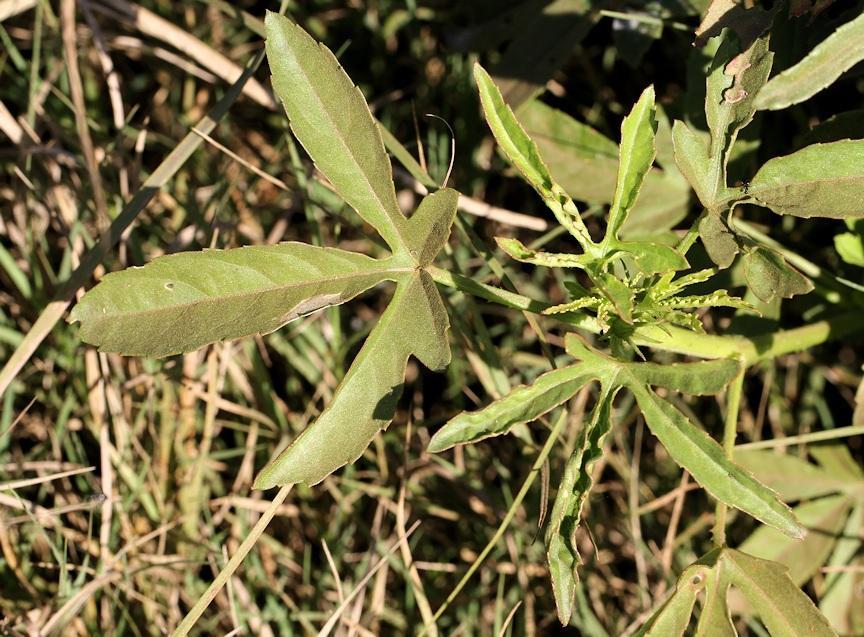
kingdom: Plantae
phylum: Tracheophyta
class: Magnoliopsida
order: Malvales
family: Malvaceae
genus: Hibiscus
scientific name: Hibiscus cannabinus
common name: Brown indianhemp
